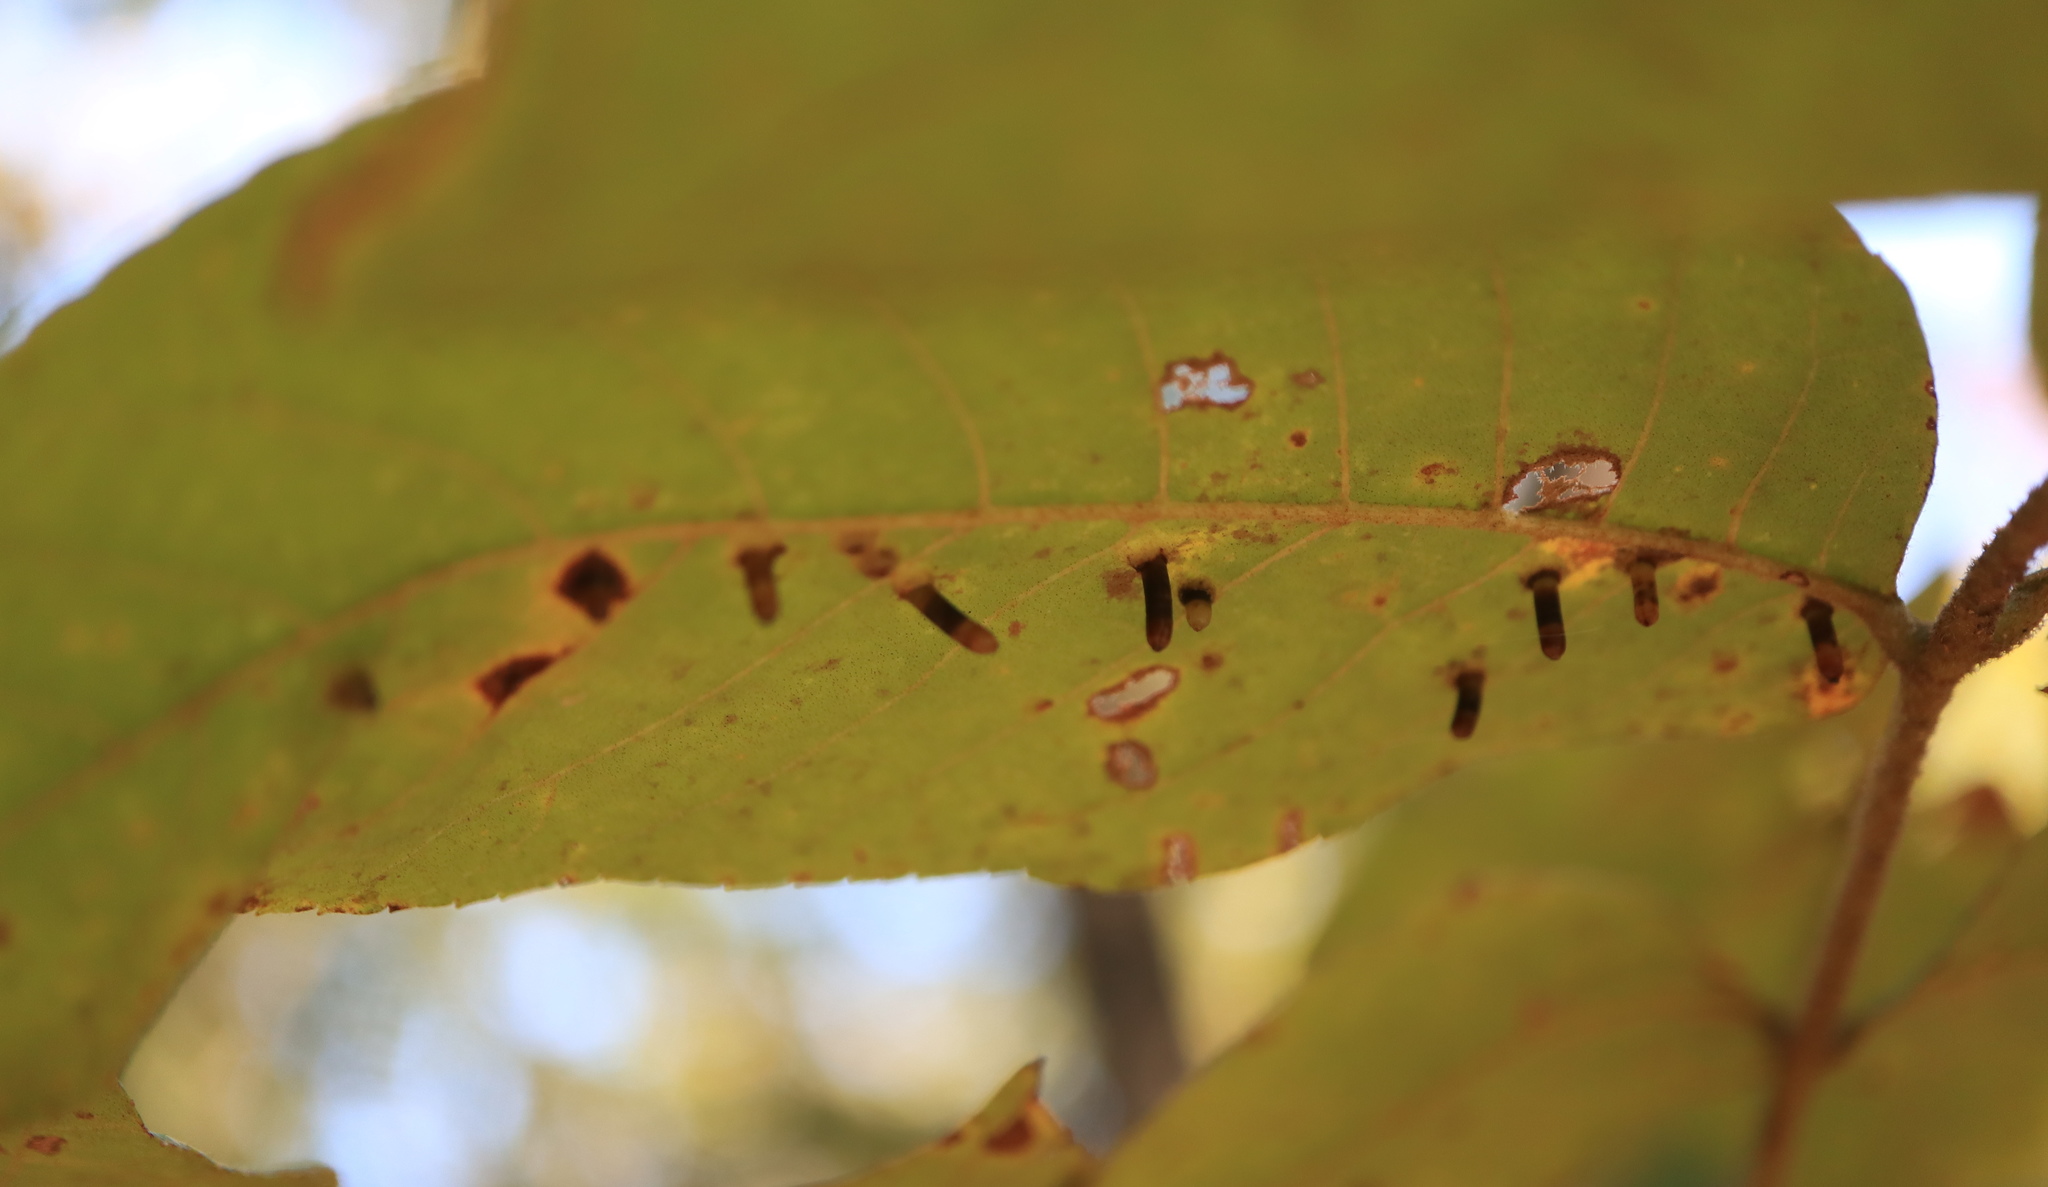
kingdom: Animalia
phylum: Arthropoda
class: Insecta
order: Diptera
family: Cecidomyiidae
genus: Caryomyia
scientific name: Caryomyia tubicola
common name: Hickory bullet gall midge
